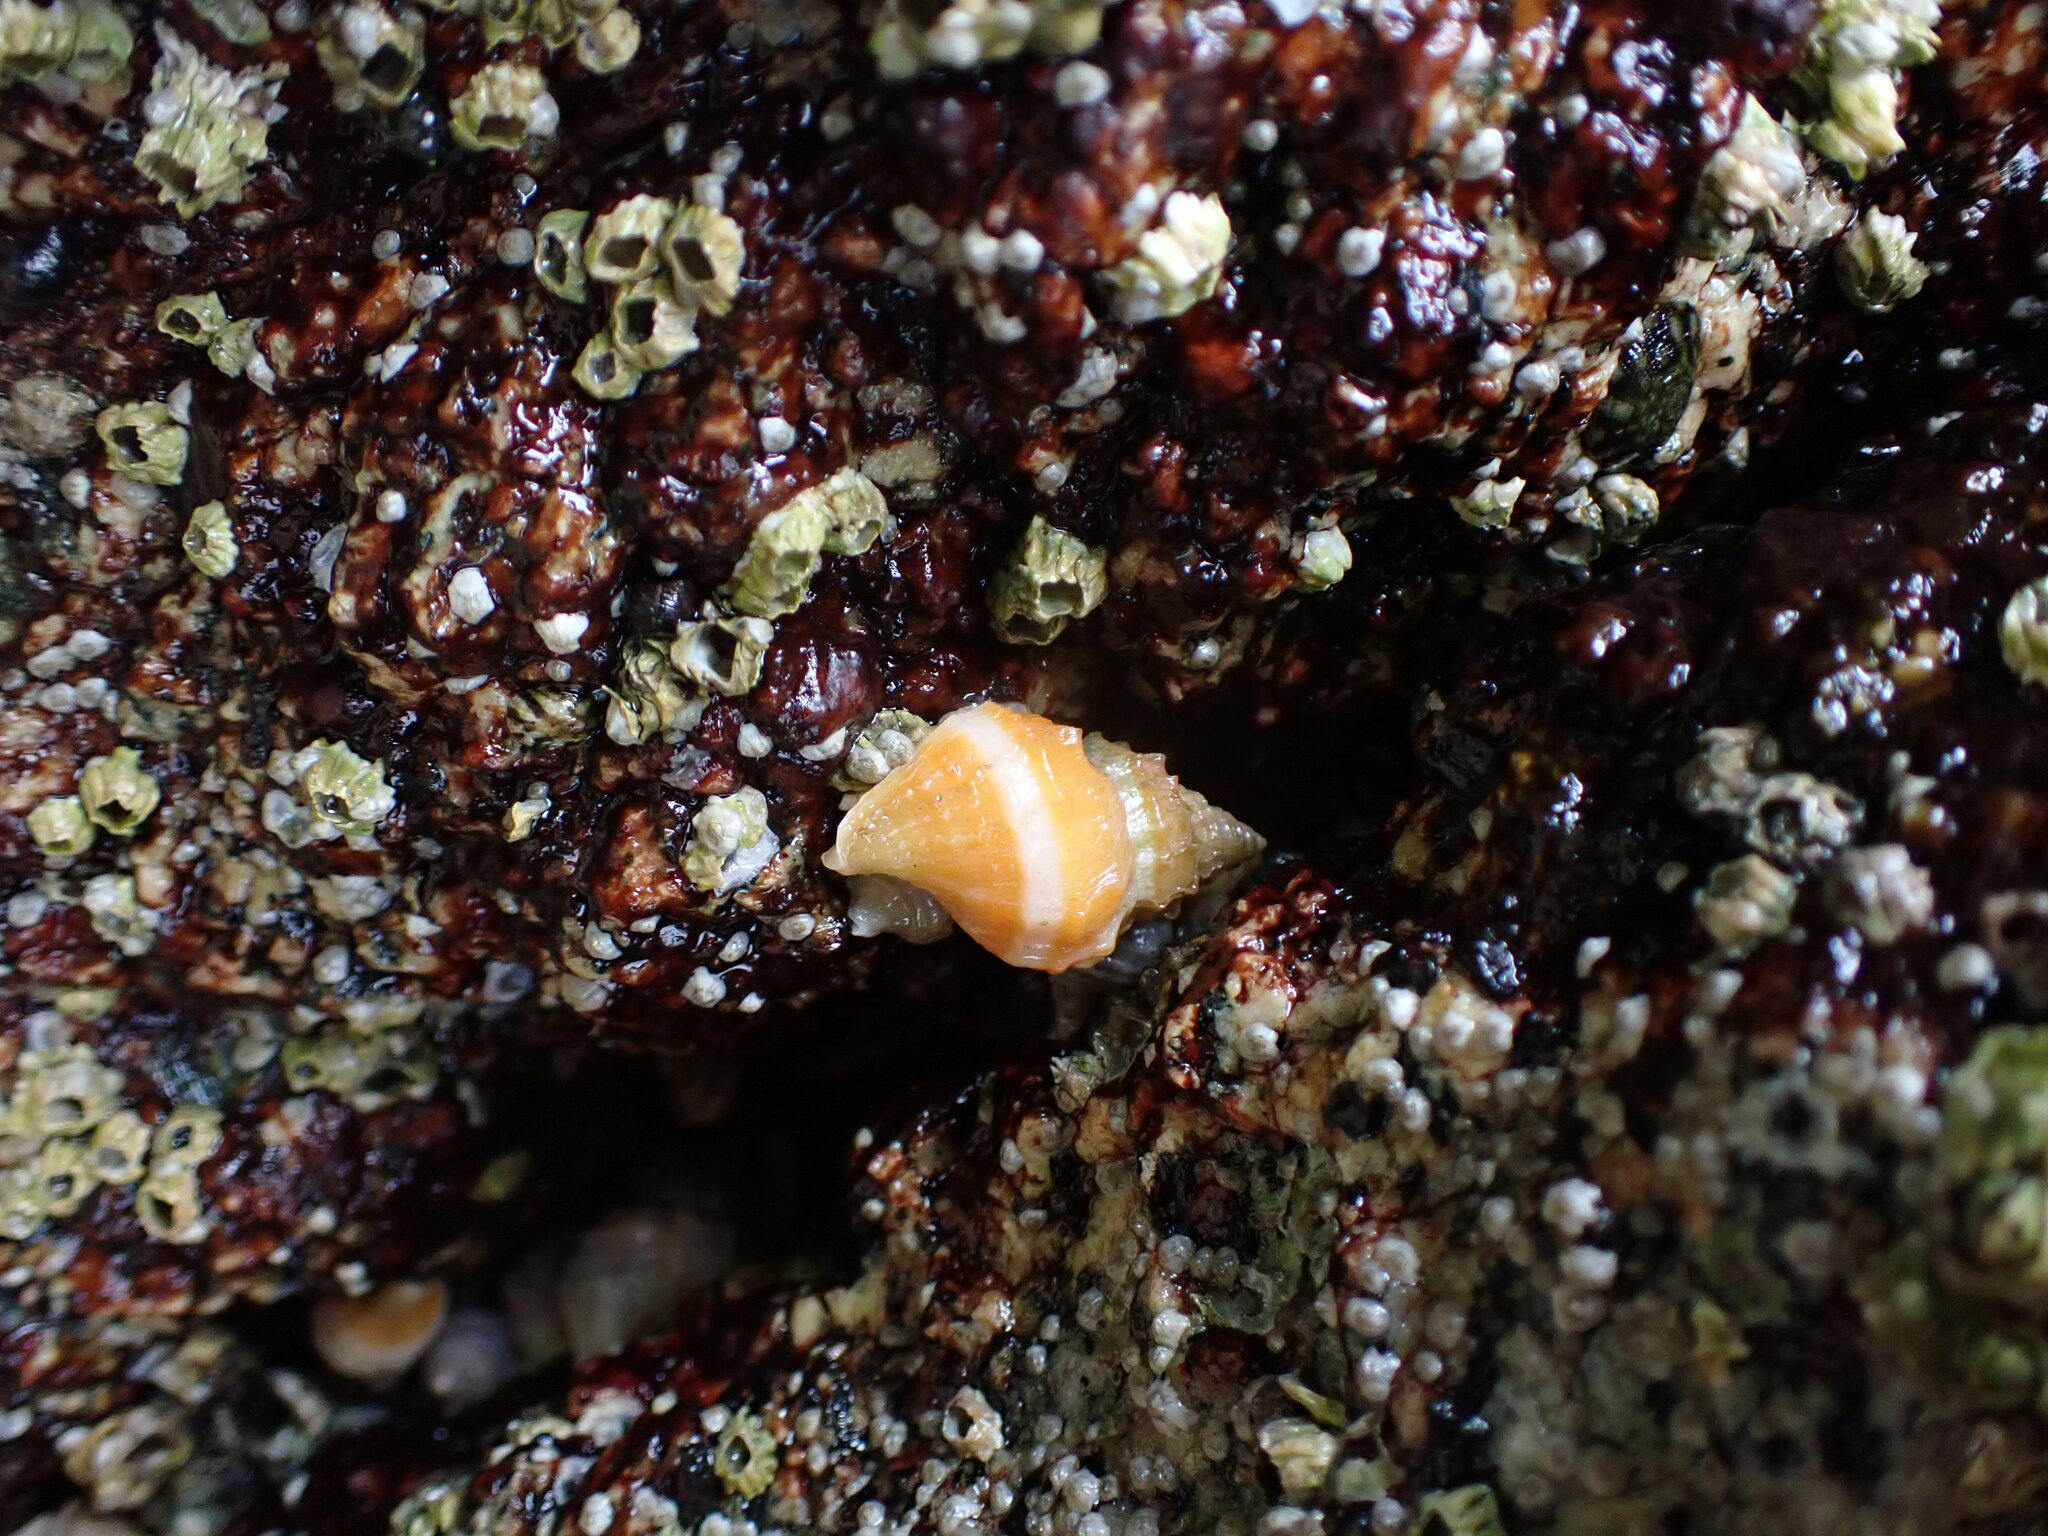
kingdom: Animalia
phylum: Mollusca
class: Gastropoda
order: Neogastropoda
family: Muricidae
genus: Nucella
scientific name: Nucella lamellosa
